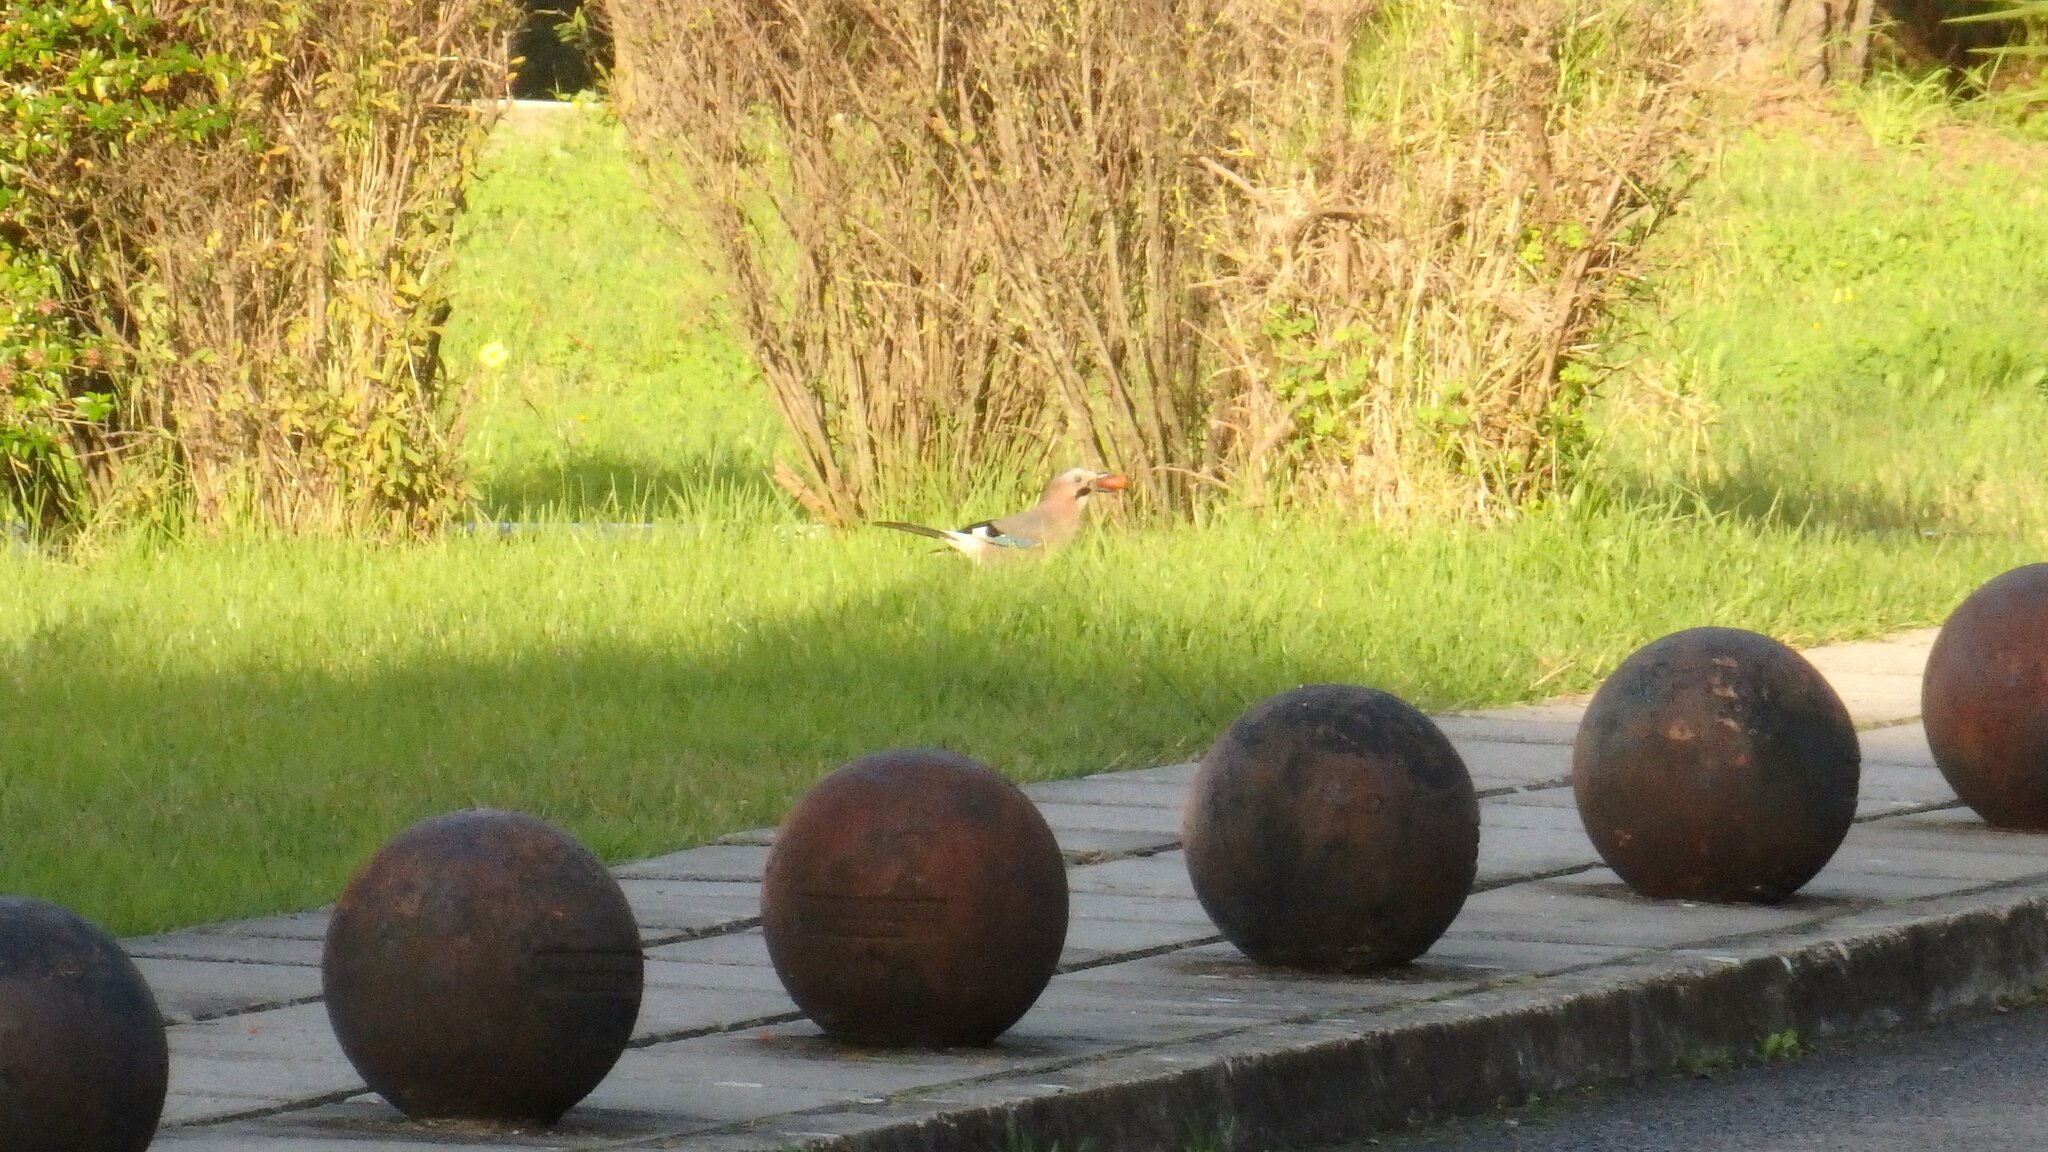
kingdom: Animalia
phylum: Chordata
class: Aves
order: Passeriformes
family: Corvidae
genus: Garrulus
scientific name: Garrulus glandarius
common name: Eurasian jay
